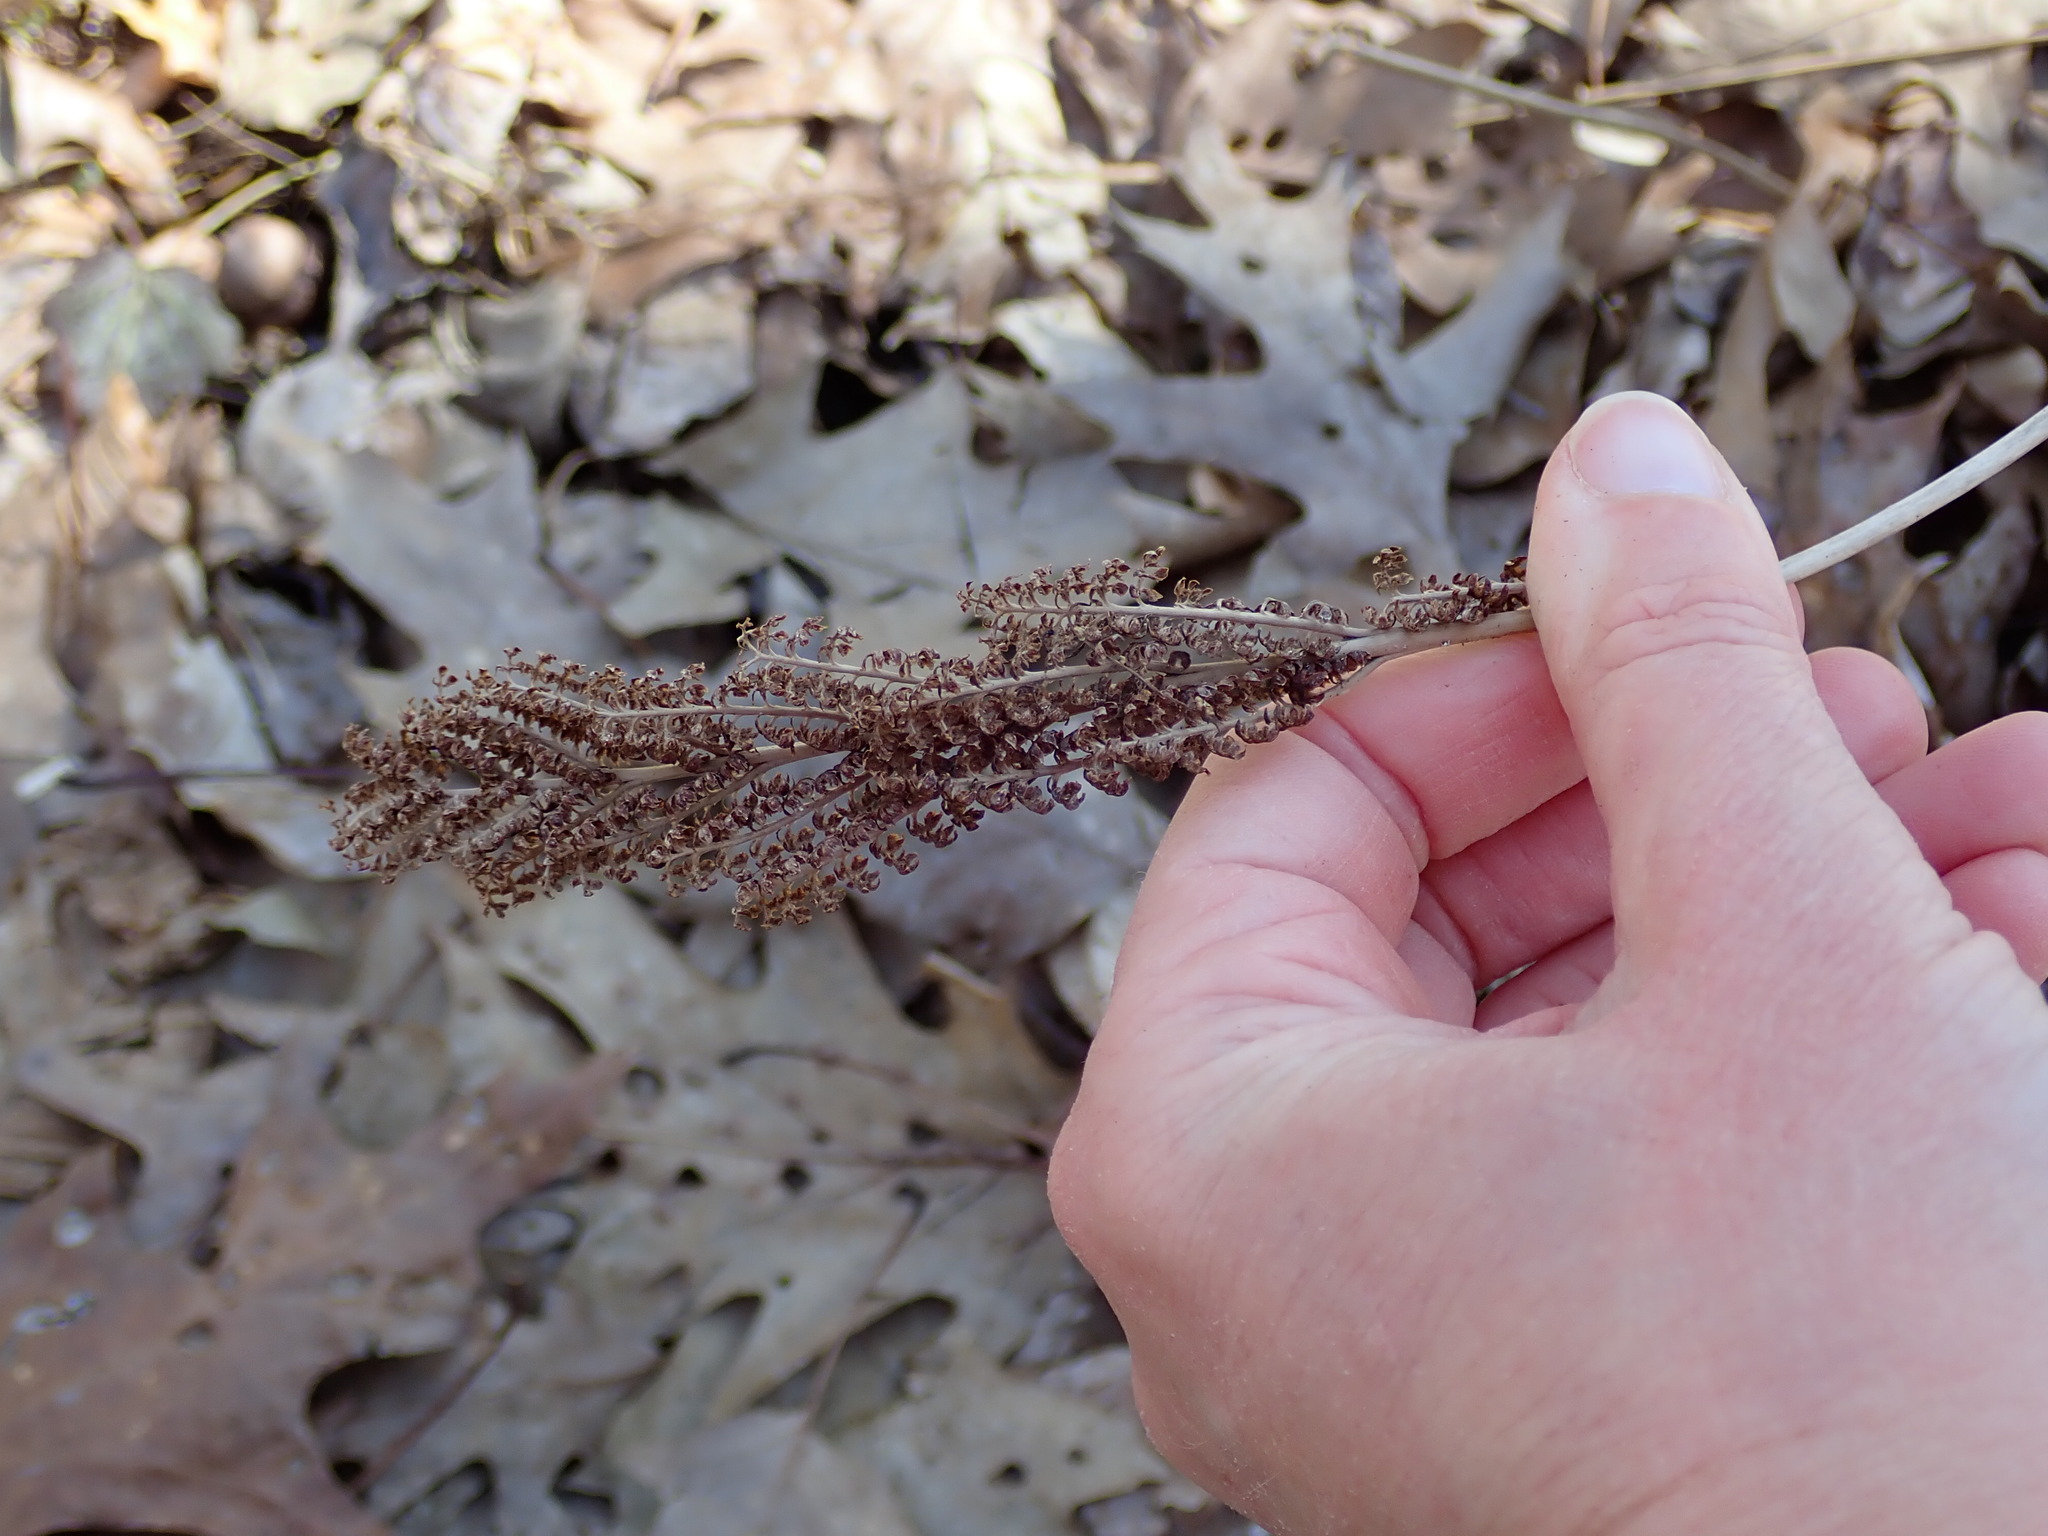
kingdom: Plantae
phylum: Tracheophyta
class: Polypodiopsida
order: Polypodiales
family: Onocleaceae
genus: Onoclea
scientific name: Onoclea sensibilis
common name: Sensitive fern
